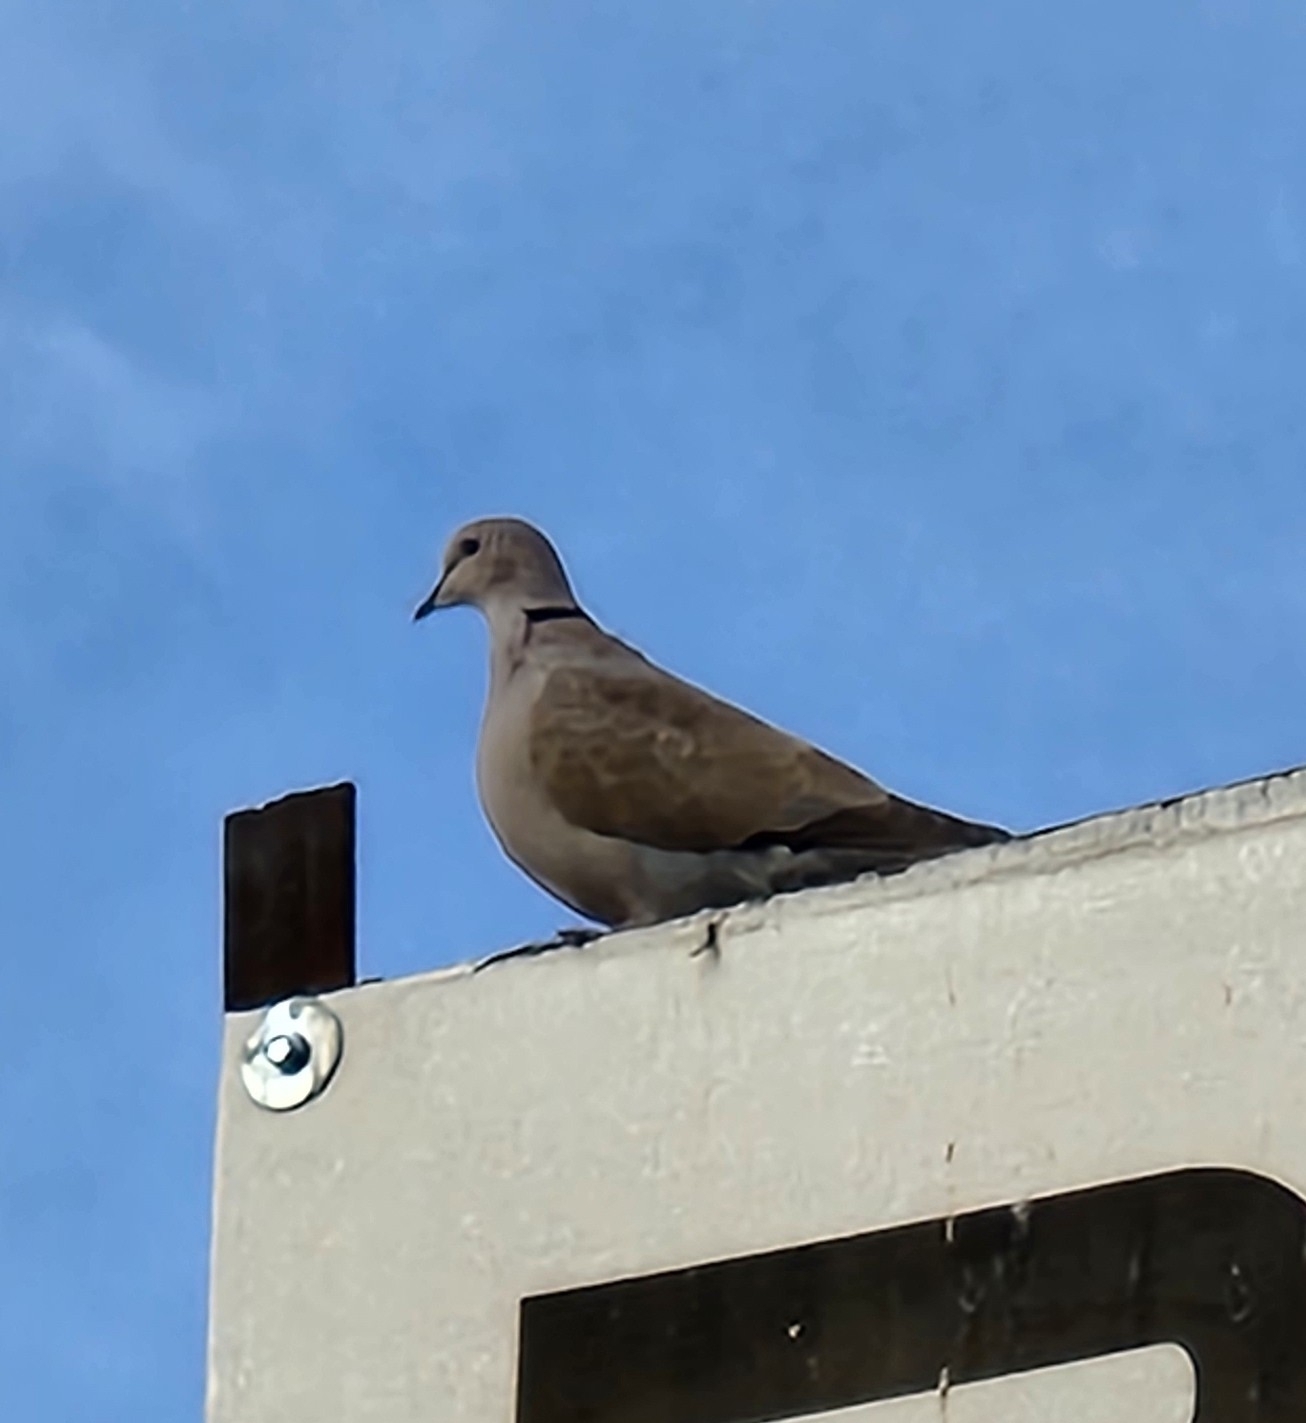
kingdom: Animalia
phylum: Chordata
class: Aves
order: Columbiformes
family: Columbidae
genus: Streptopelia
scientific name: Streptopelia decaocto
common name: Eurasian collared dove
